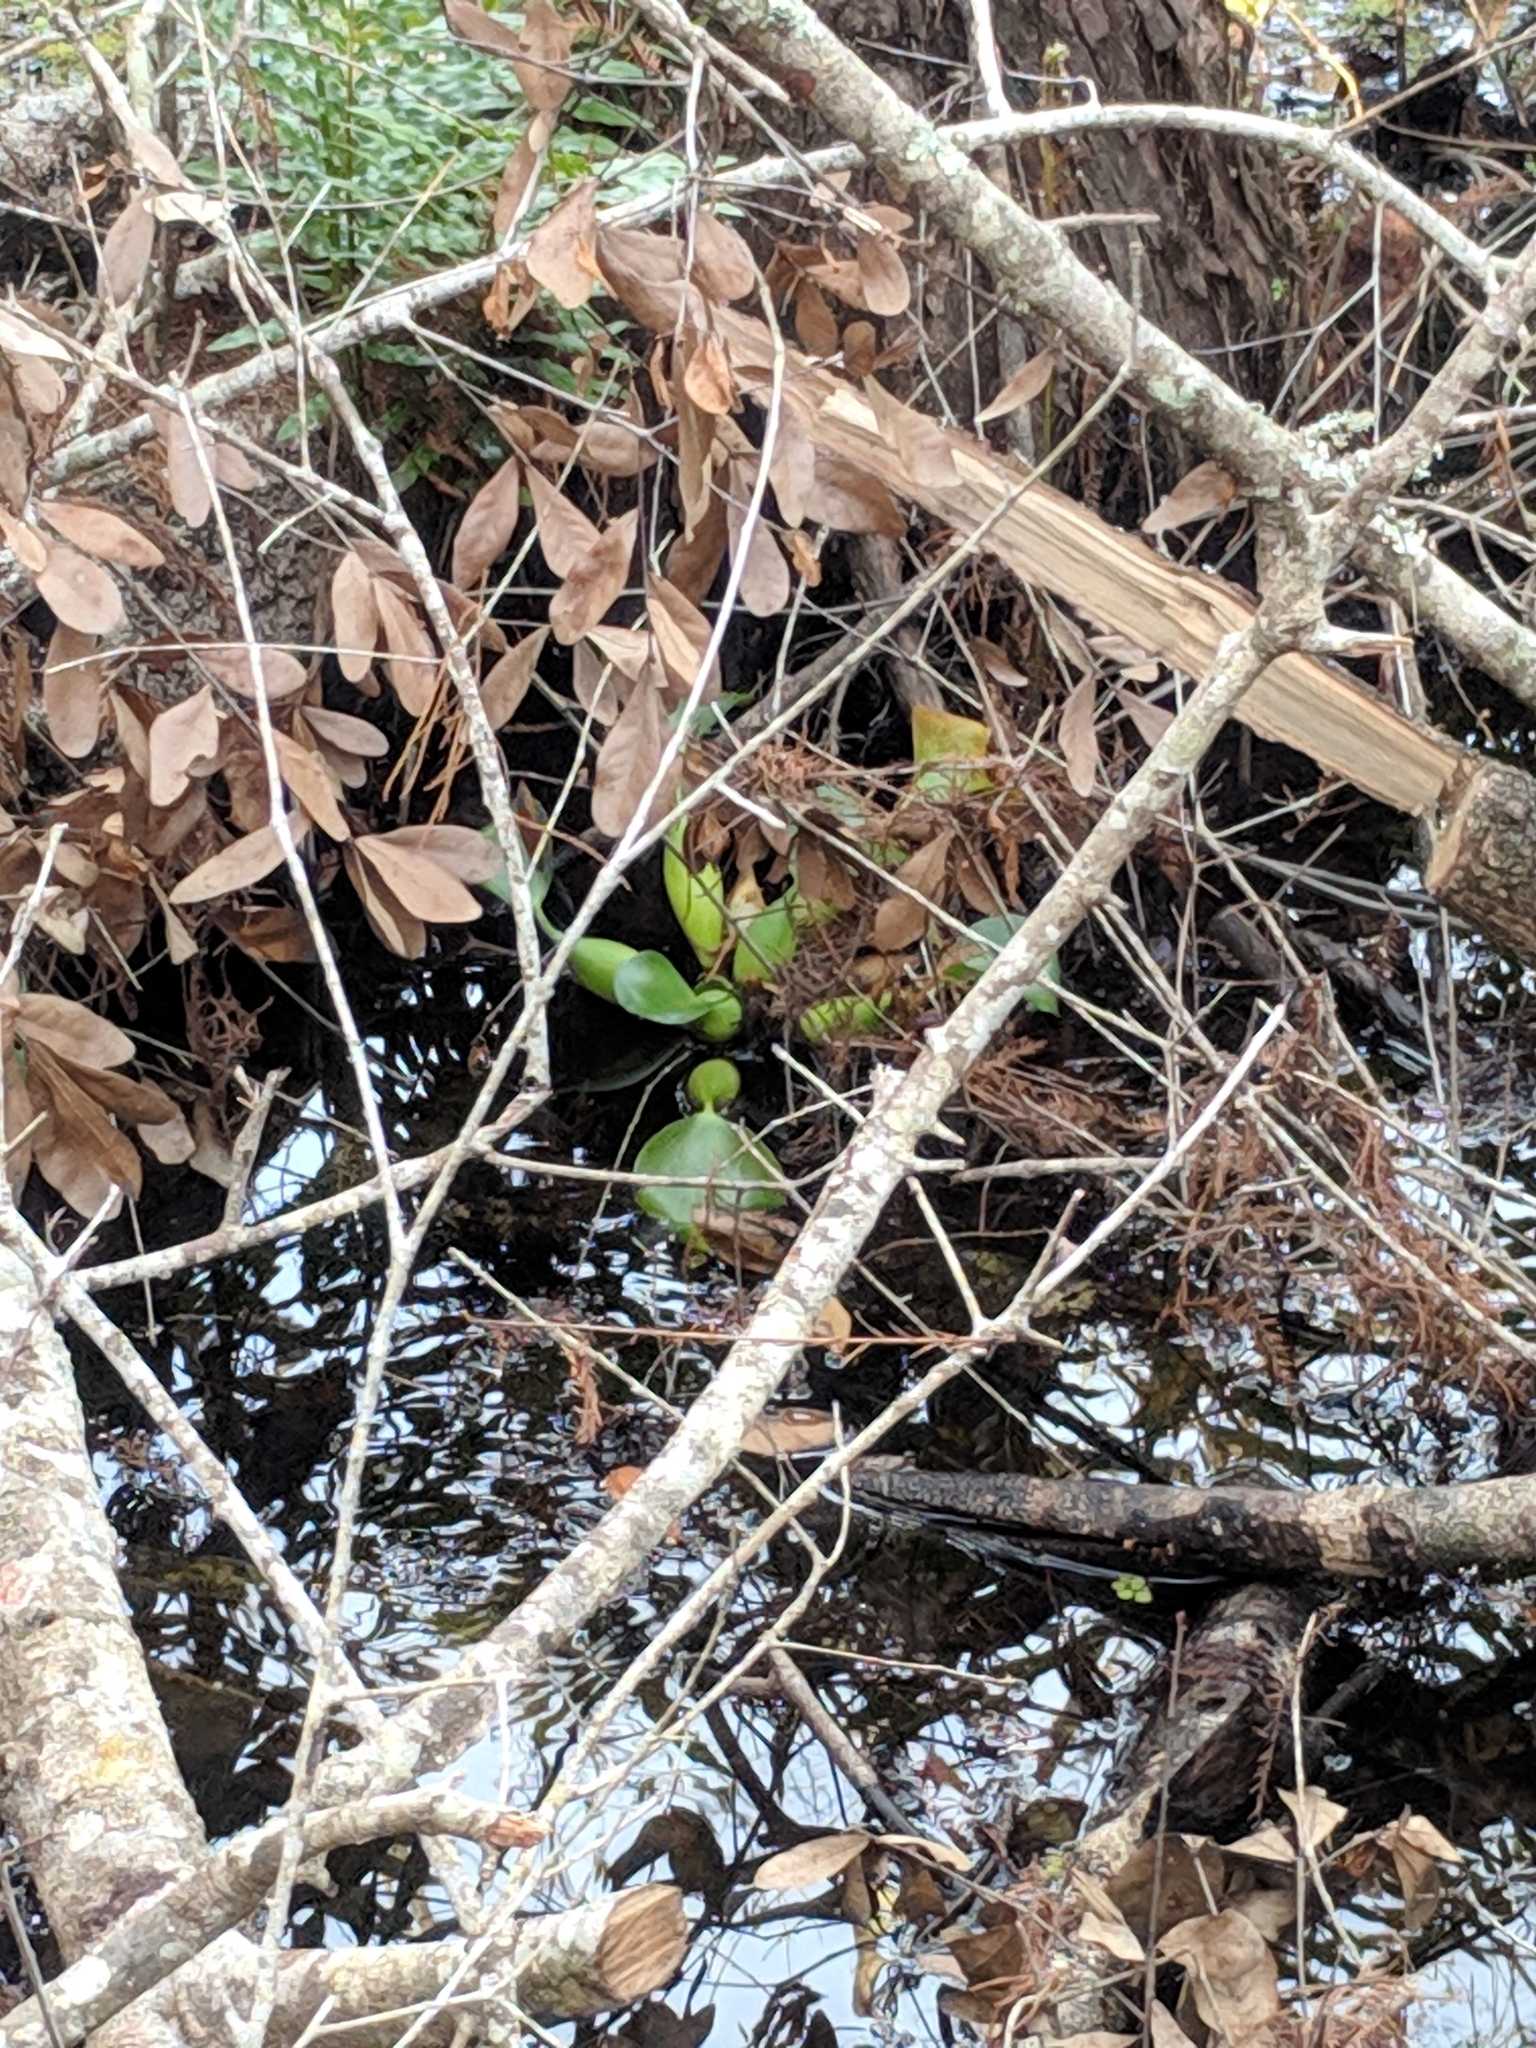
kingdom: Plantae
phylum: Tracheophyta
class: Liliopsida
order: Commelinales
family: Pontederiaceae
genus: Pontederia
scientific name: Pontederia crassipes
